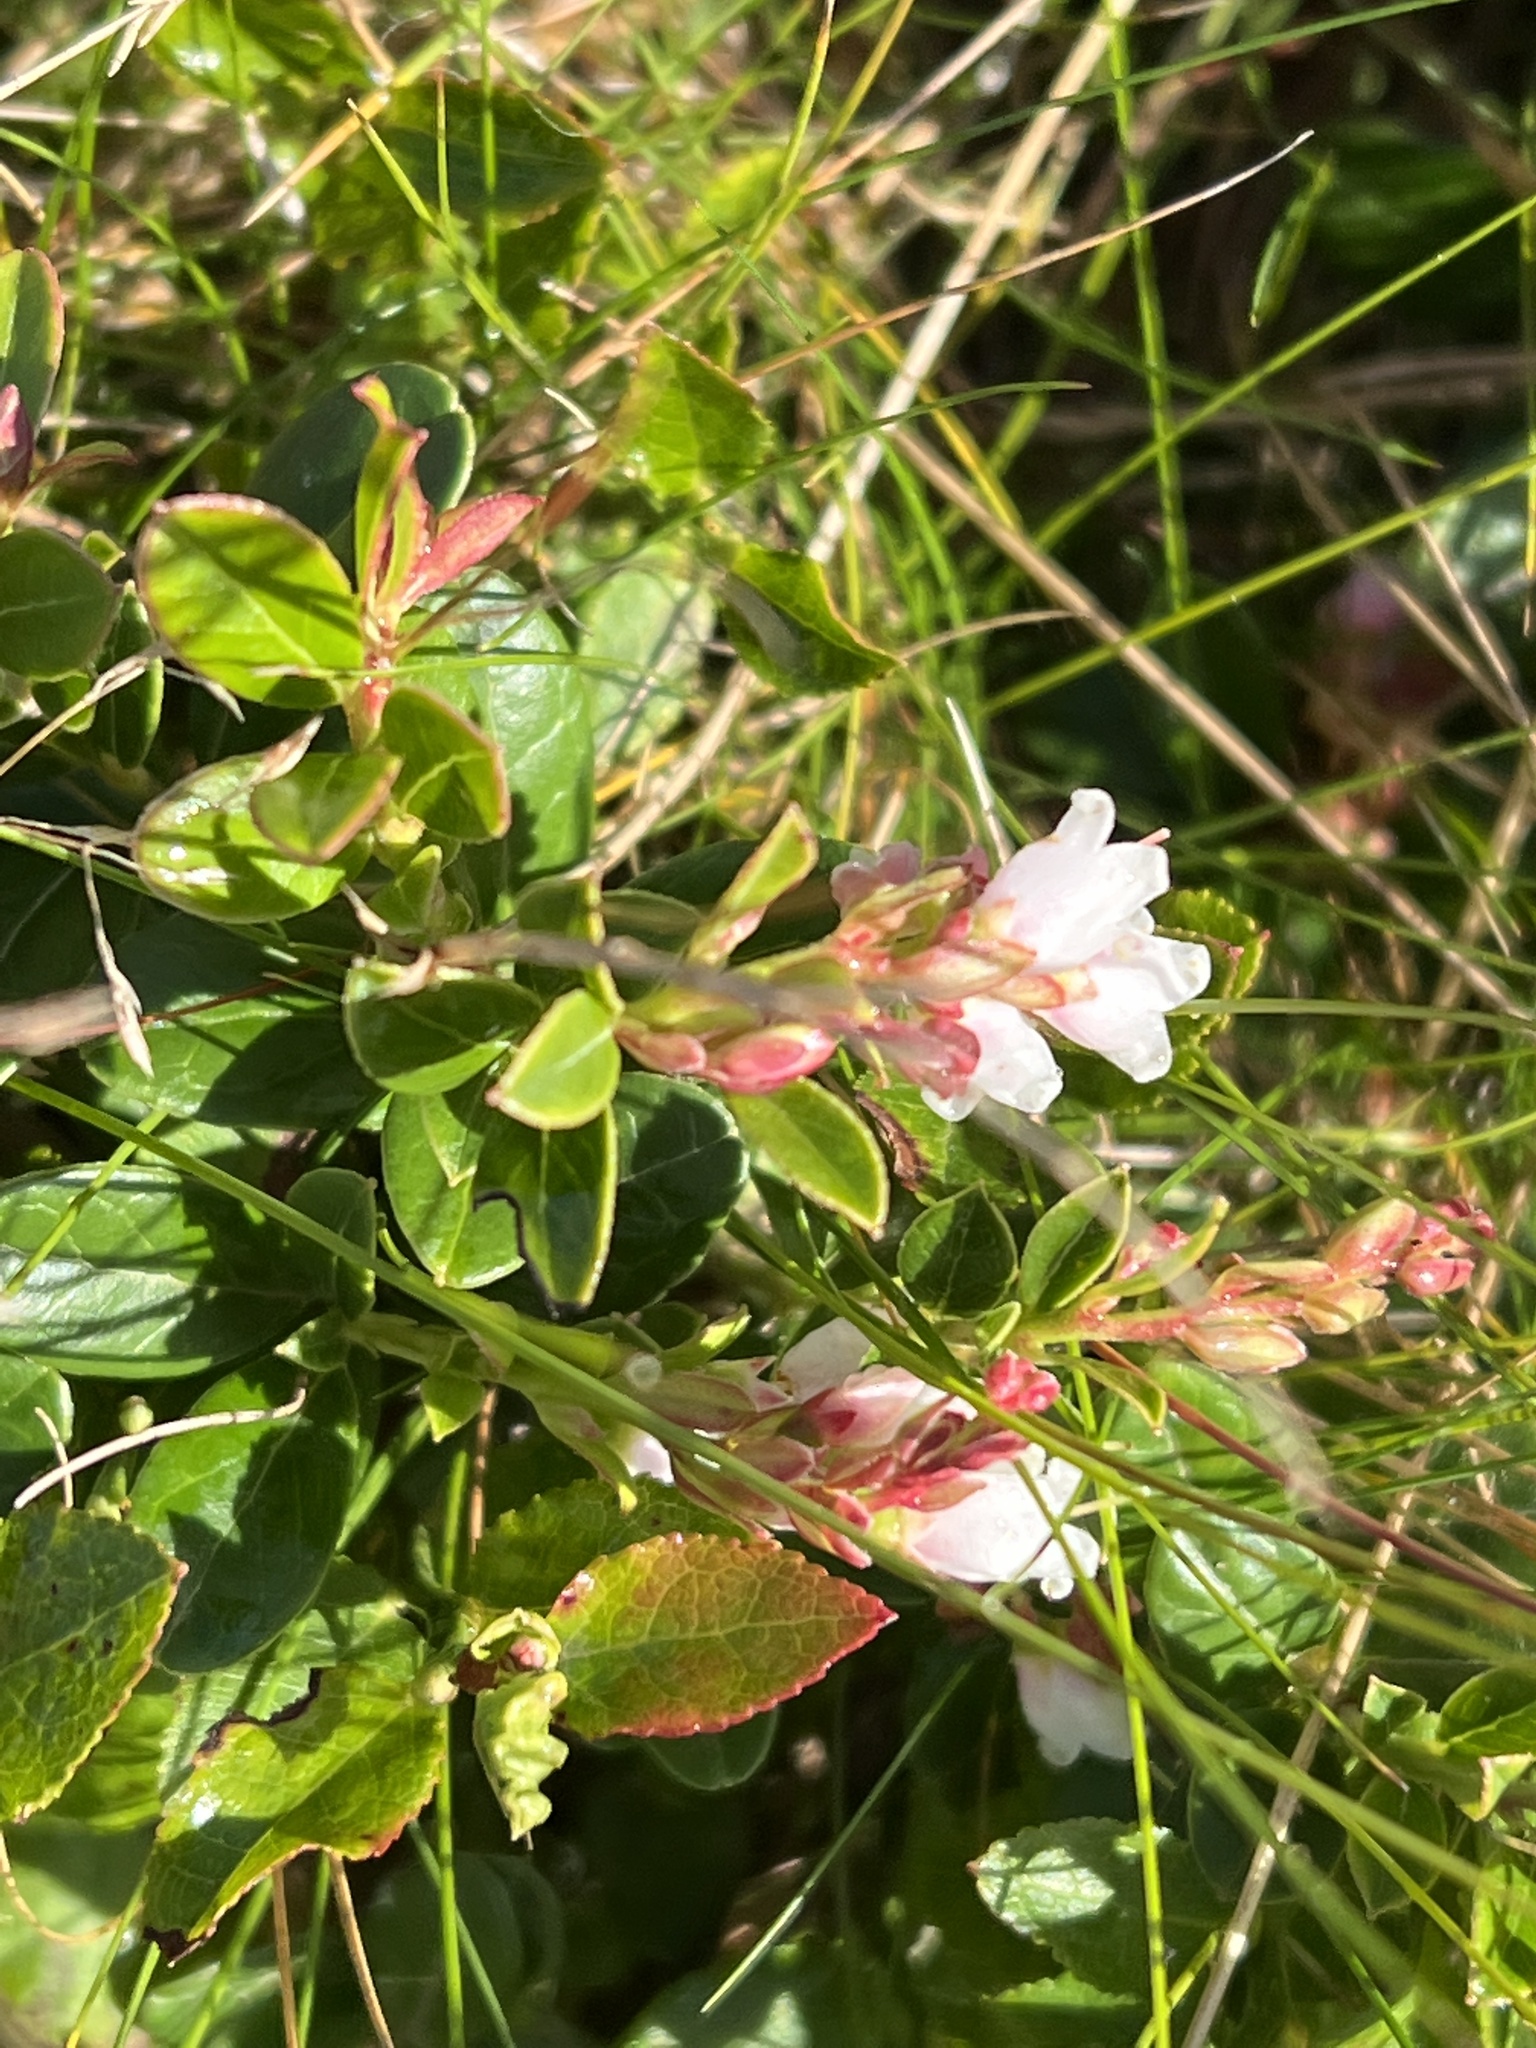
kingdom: Plantae
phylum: Tracheophyta
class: Magnoliopsida
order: Ericales
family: Ericaceae
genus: Vaccinium
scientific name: Vaccinium vitis-idaea
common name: Cowberry
